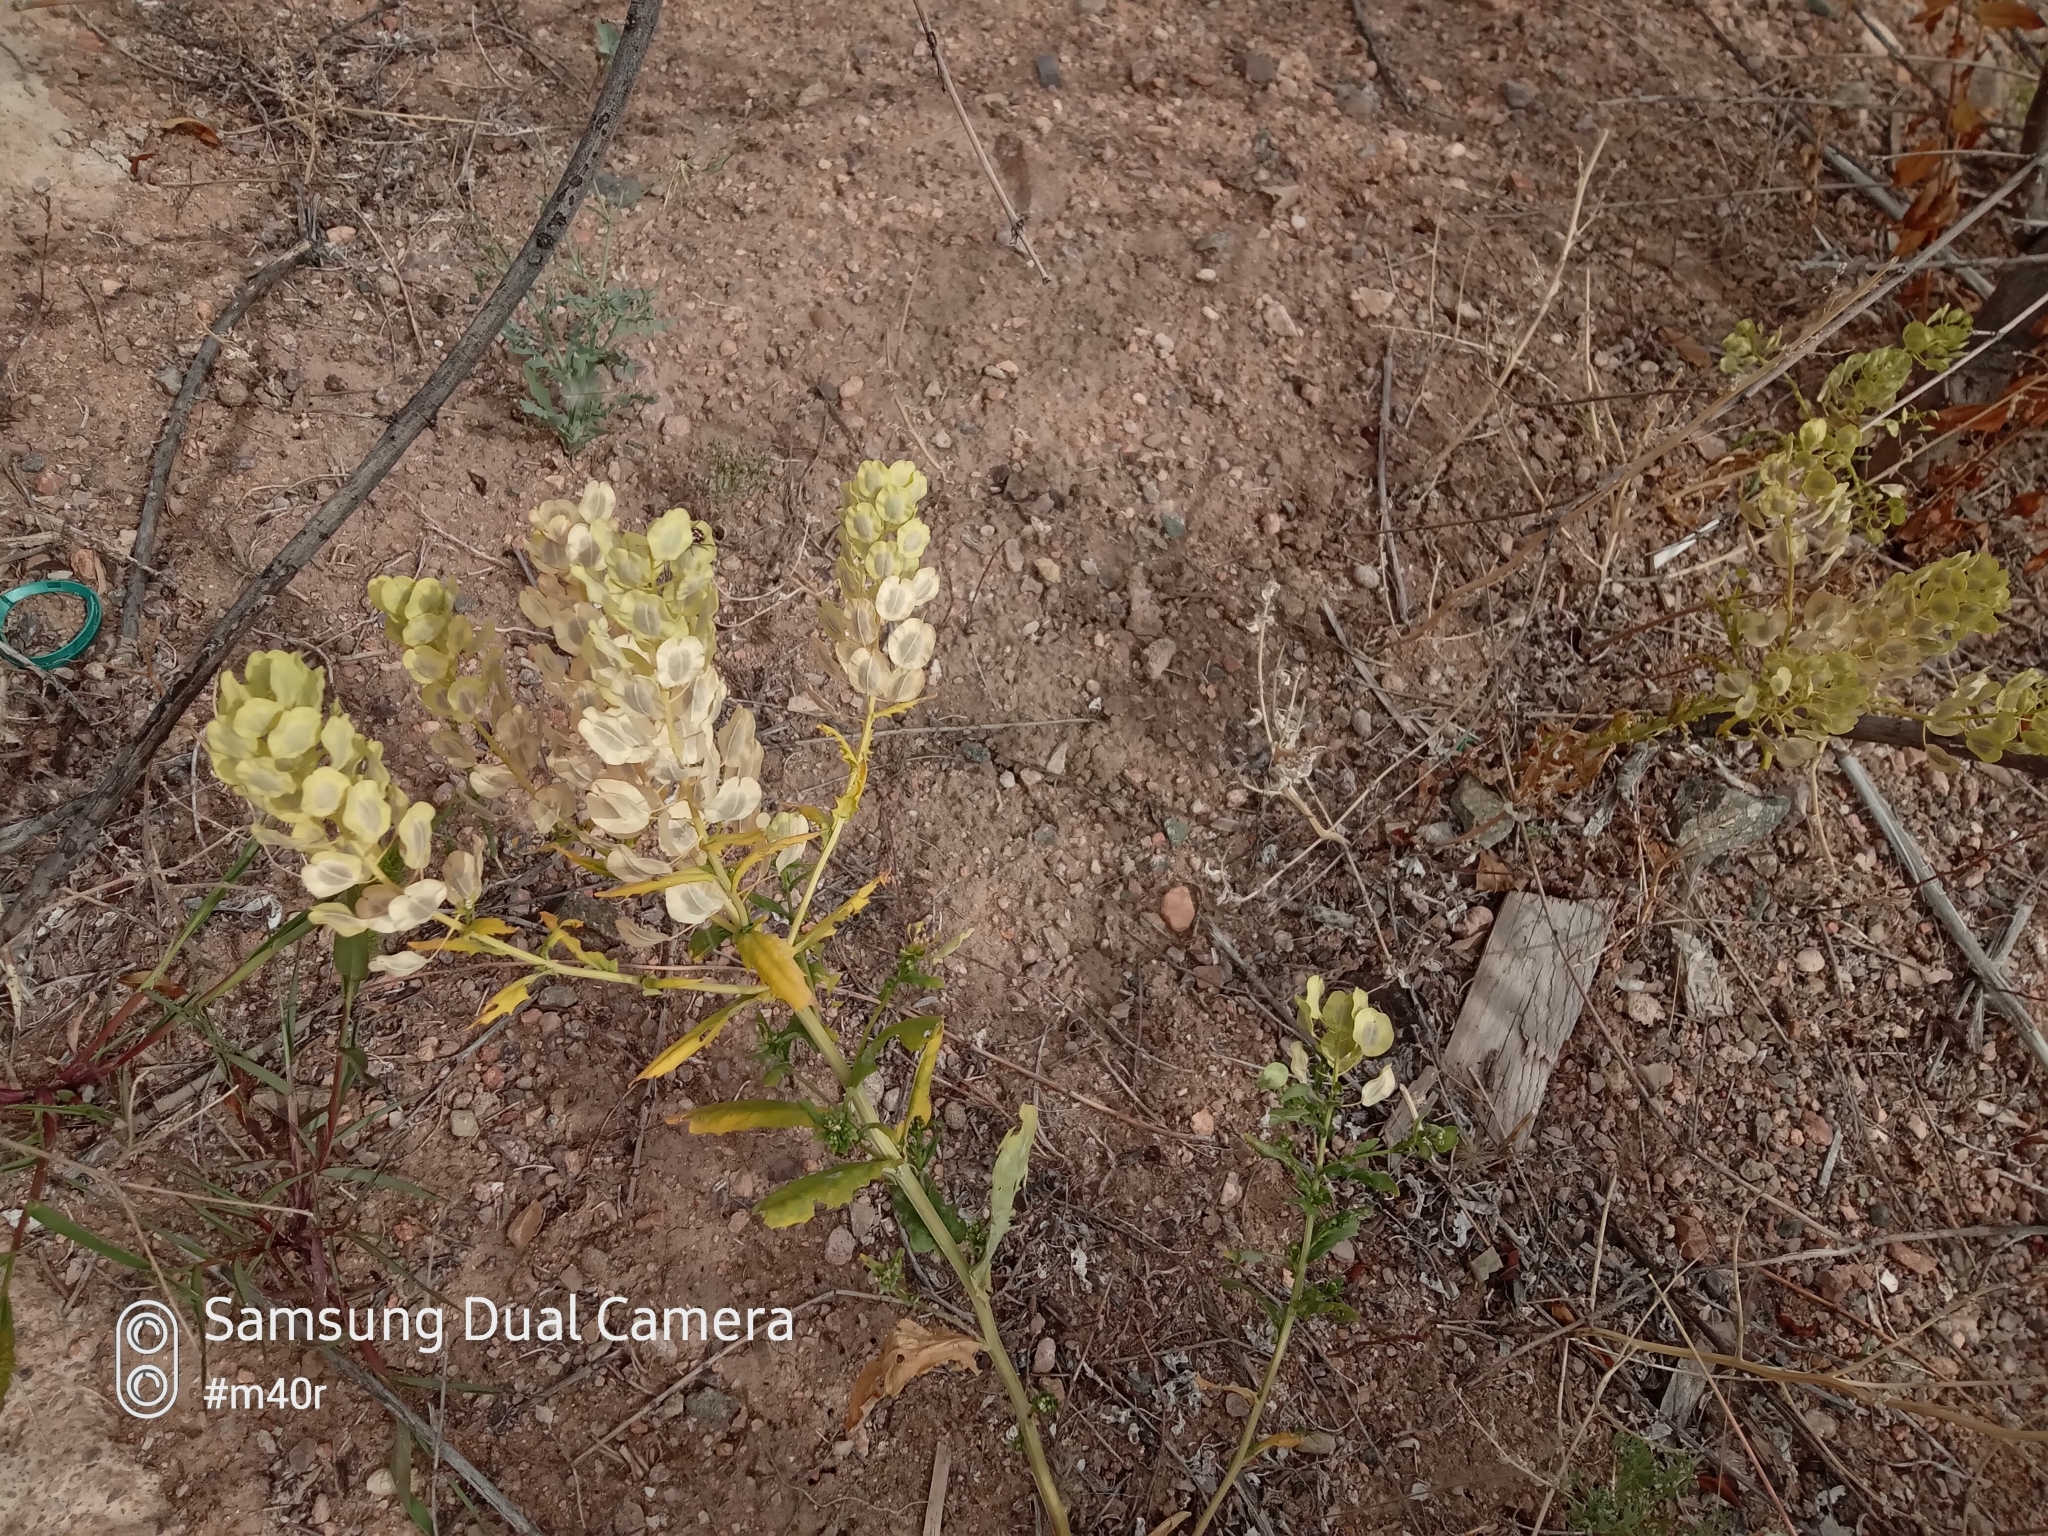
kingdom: Plantae
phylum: Tracheophyta
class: Magnoliopsida
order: Brassicales
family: Brassicaceae
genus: Thlaspi
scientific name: Thlaspi arvense
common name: Field pennycress
